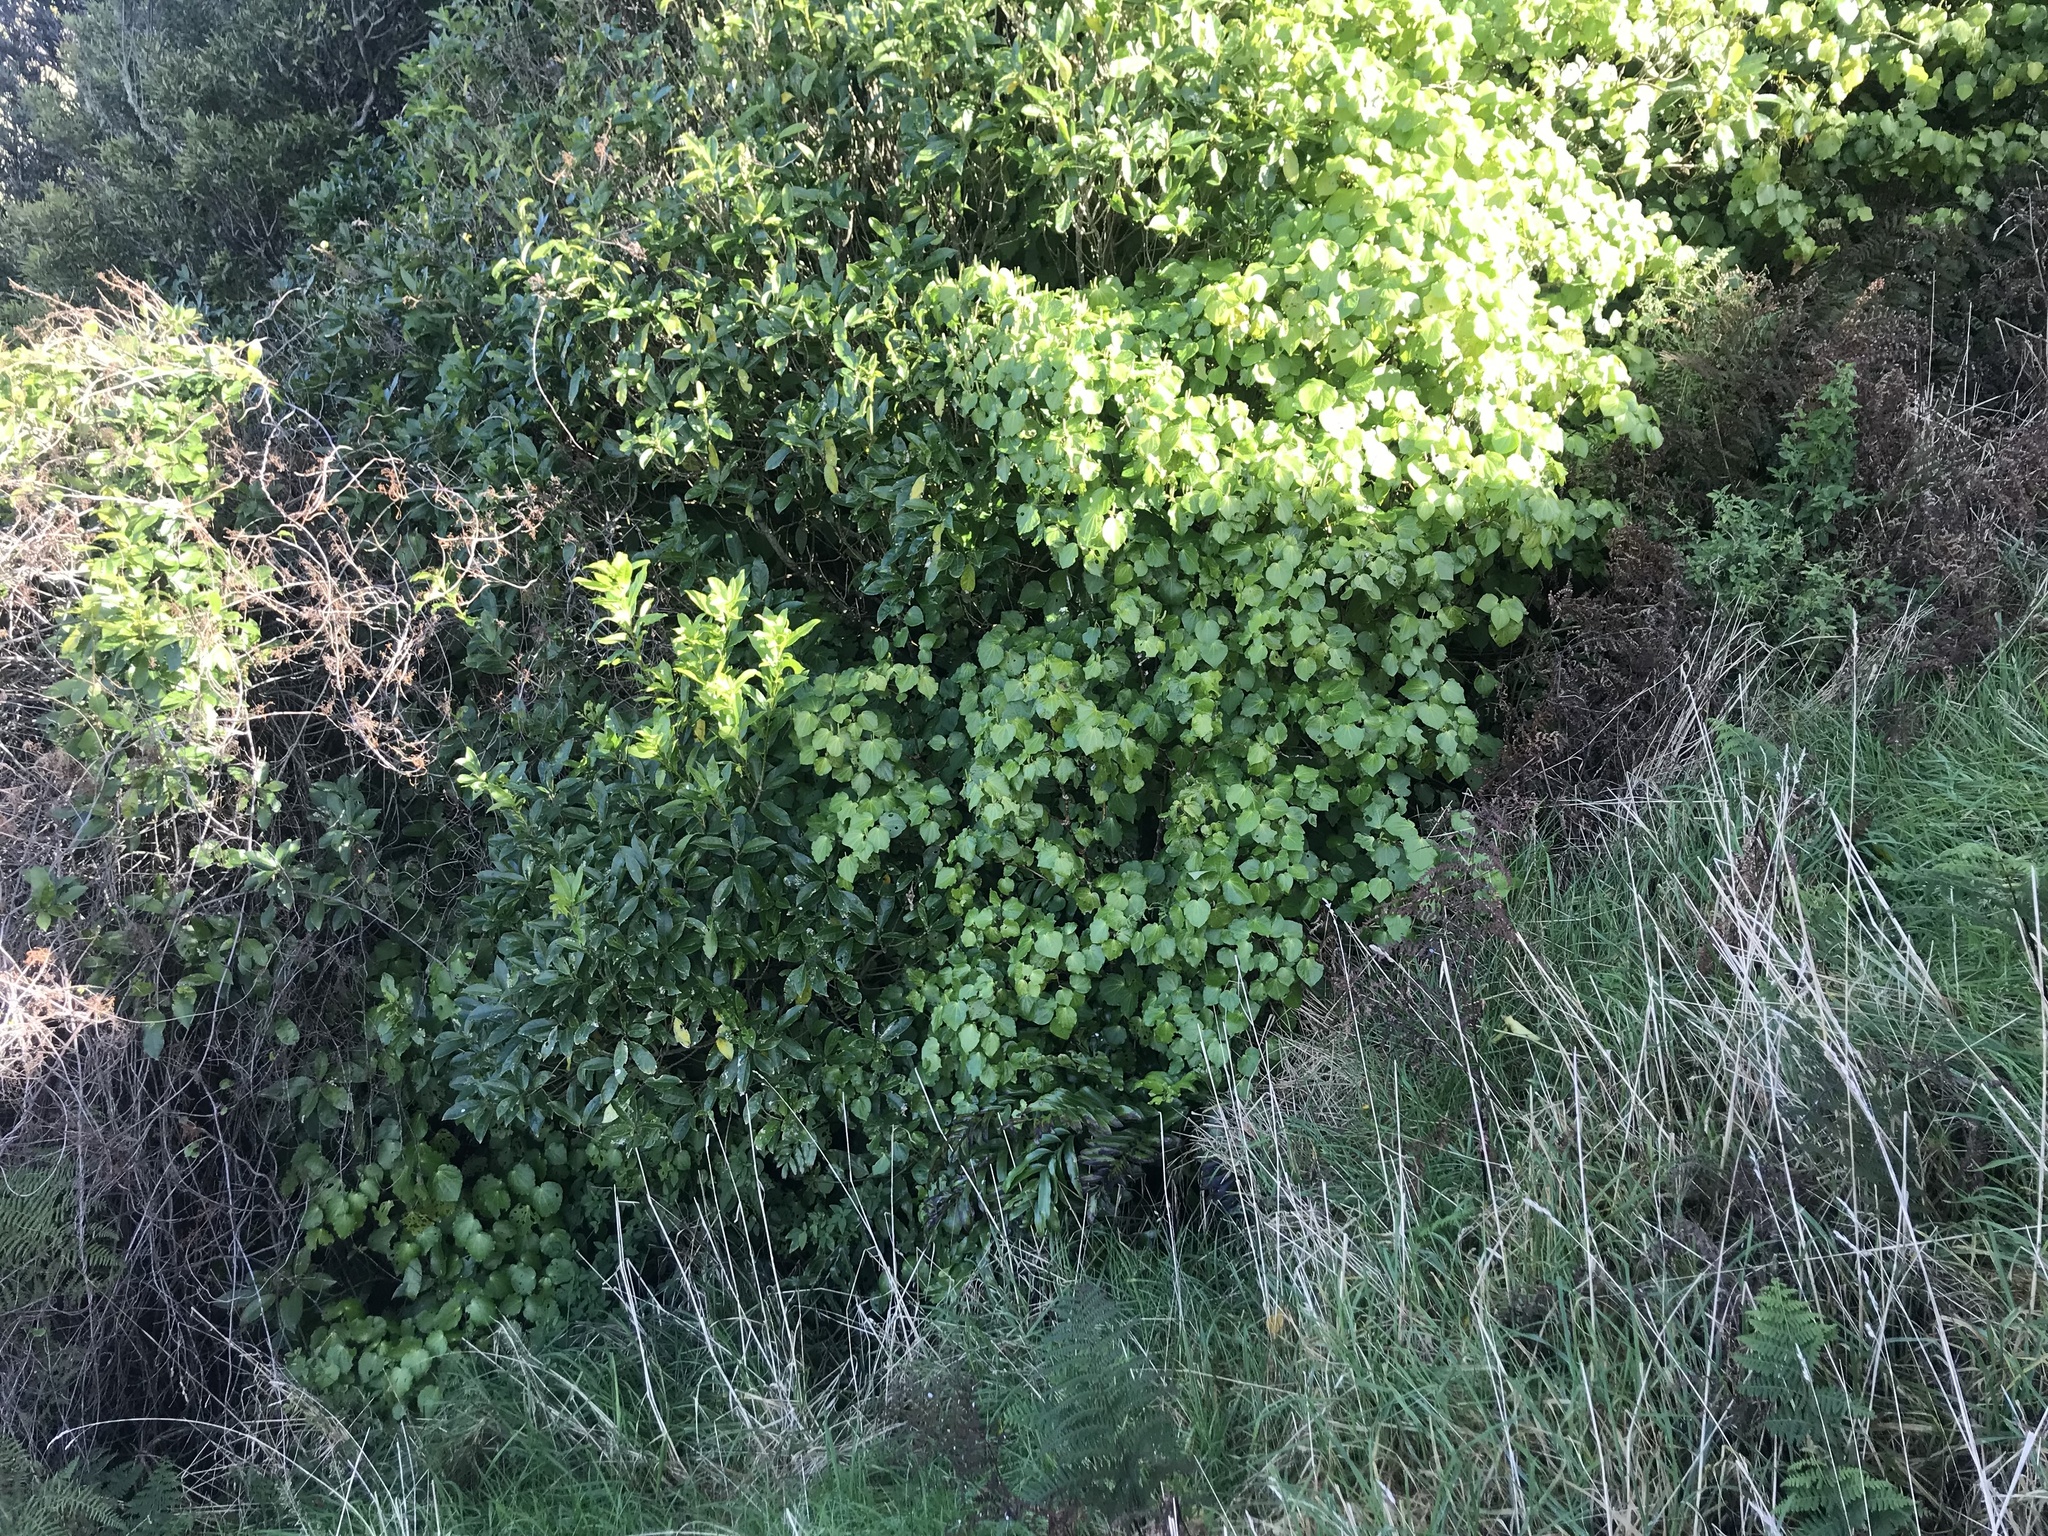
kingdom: Plantae
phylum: Tracheophyta
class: Magnoliopsida
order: Piperales
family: Piperaceae
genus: Macropiper
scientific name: Macropiper excelsum
